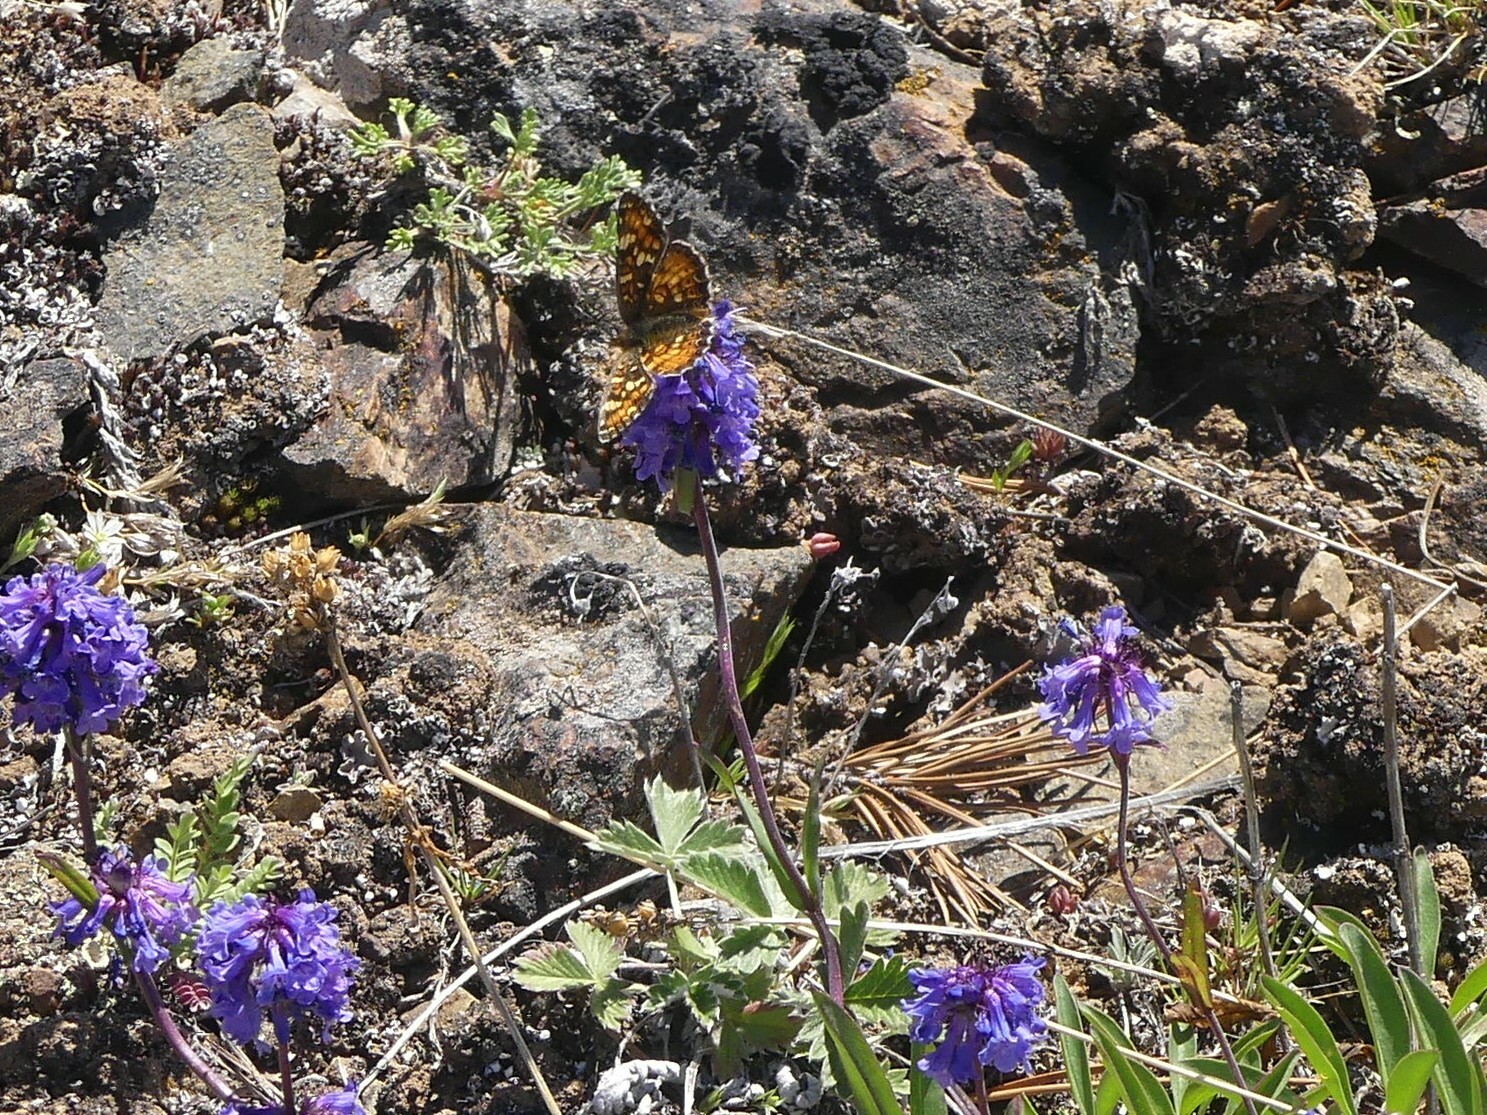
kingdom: Animalia
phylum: Arthropoda
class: Insecta
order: Lepidoptera
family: Nymphalidae
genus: Phyciodes
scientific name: Phyciodes tharos
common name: Pearl crescent
